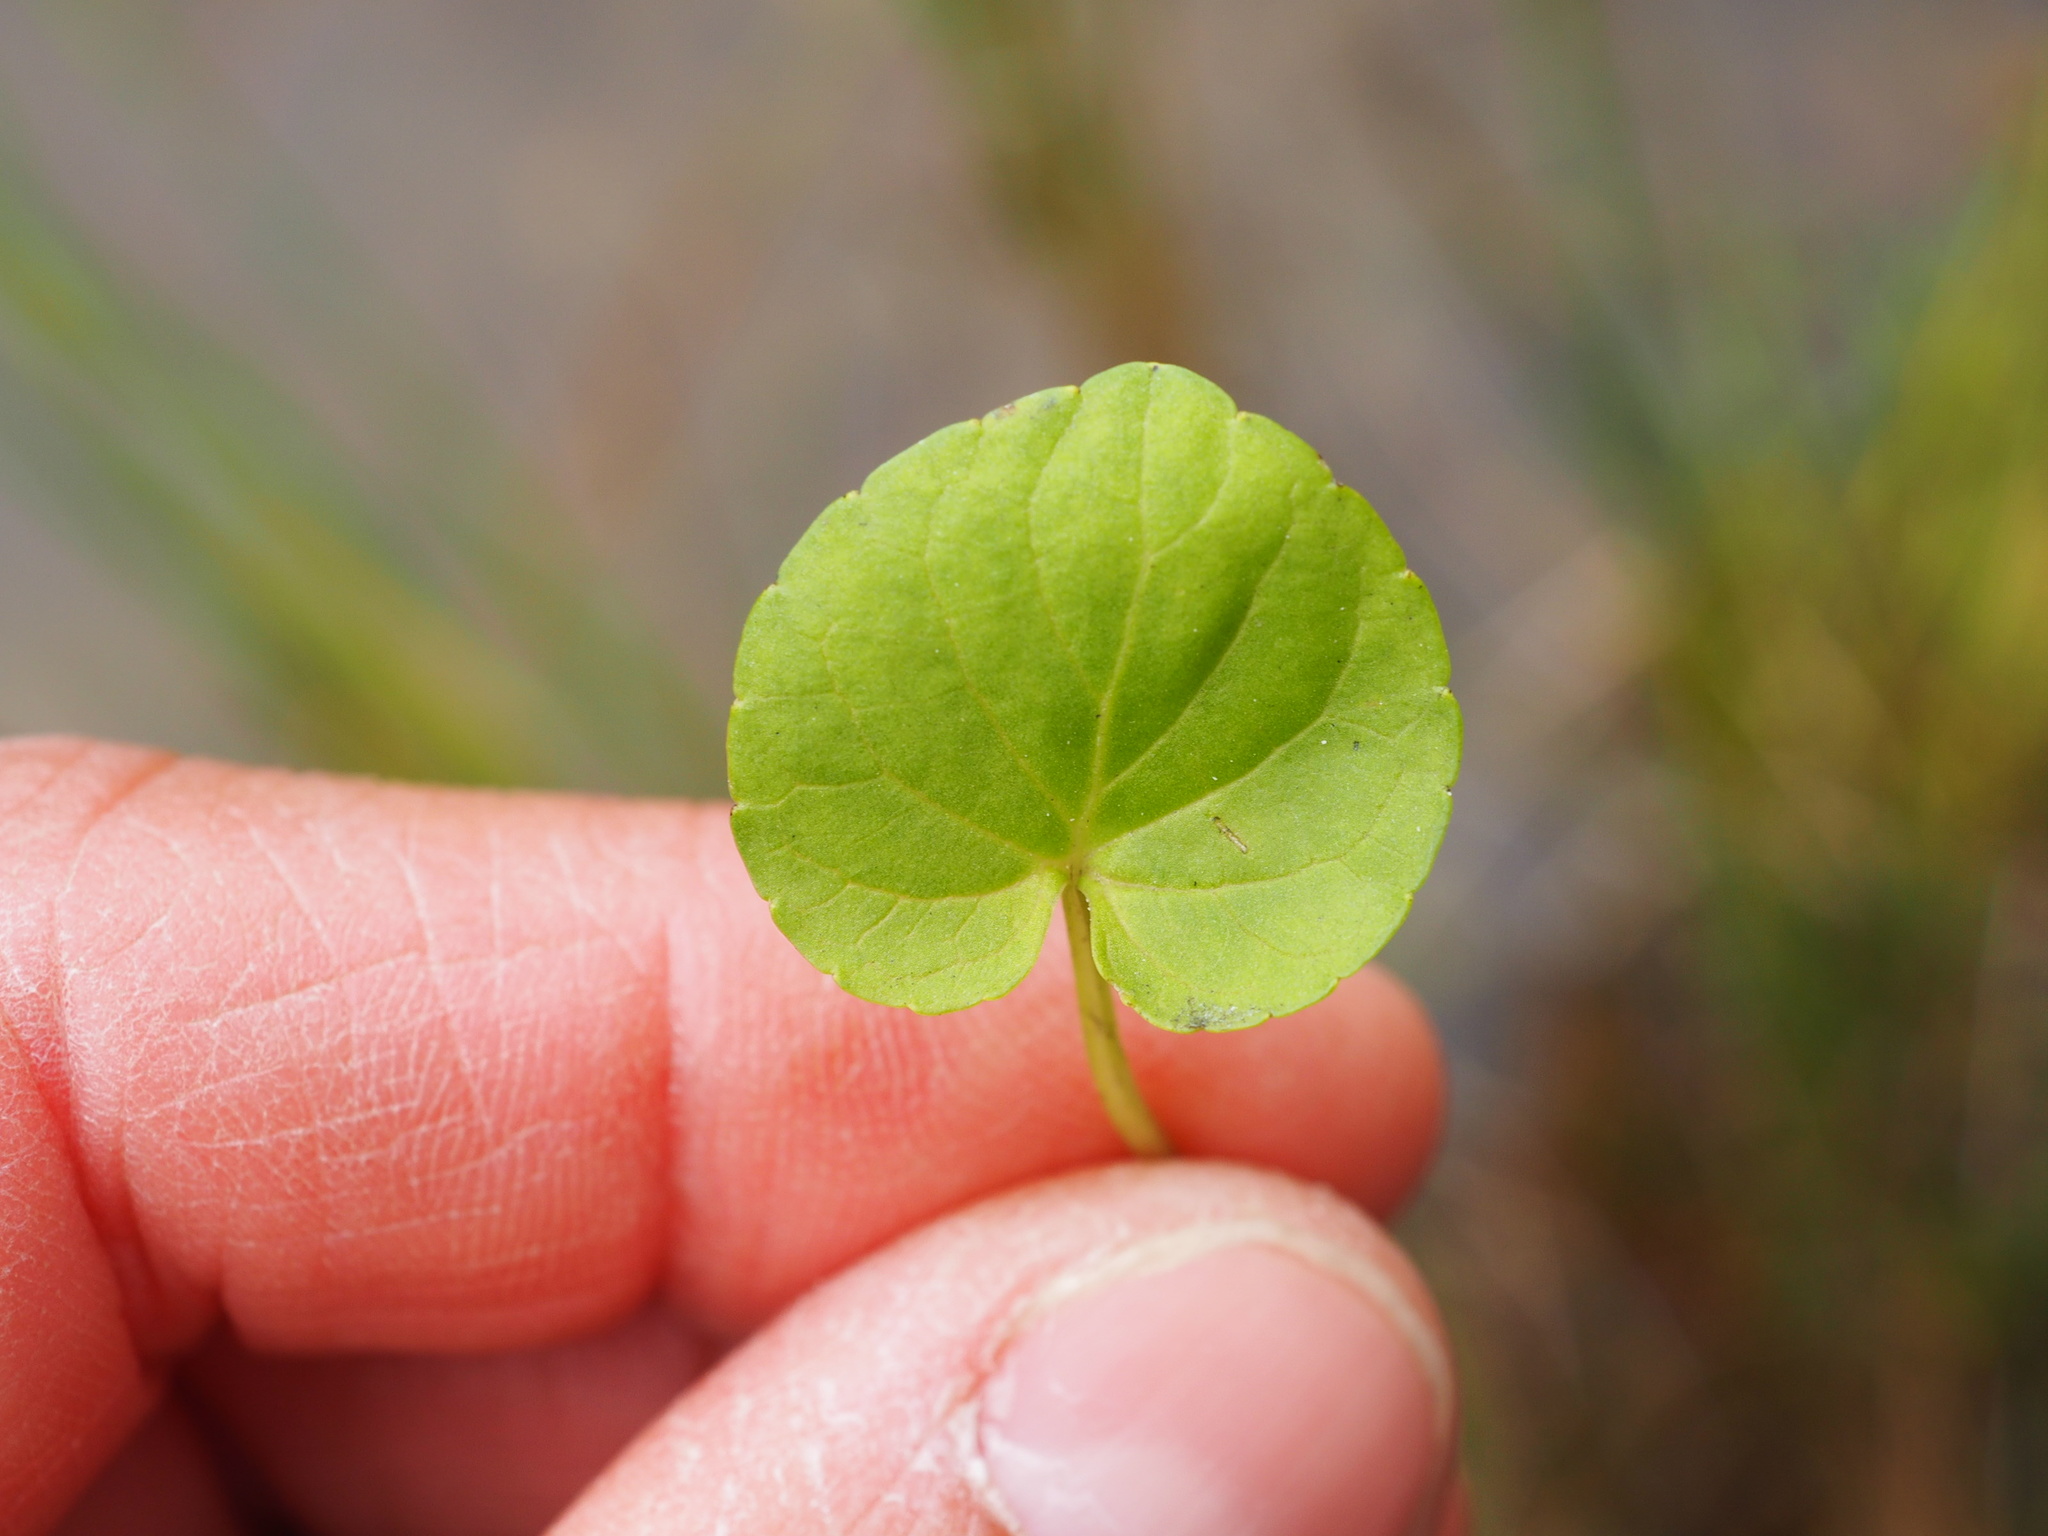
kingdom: Plantae
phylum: Tracheophyta
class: Magnoliopsida
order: Malpighiales
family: Violaceae
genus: Viola
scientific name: Viola palustris
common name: Marsh violet
